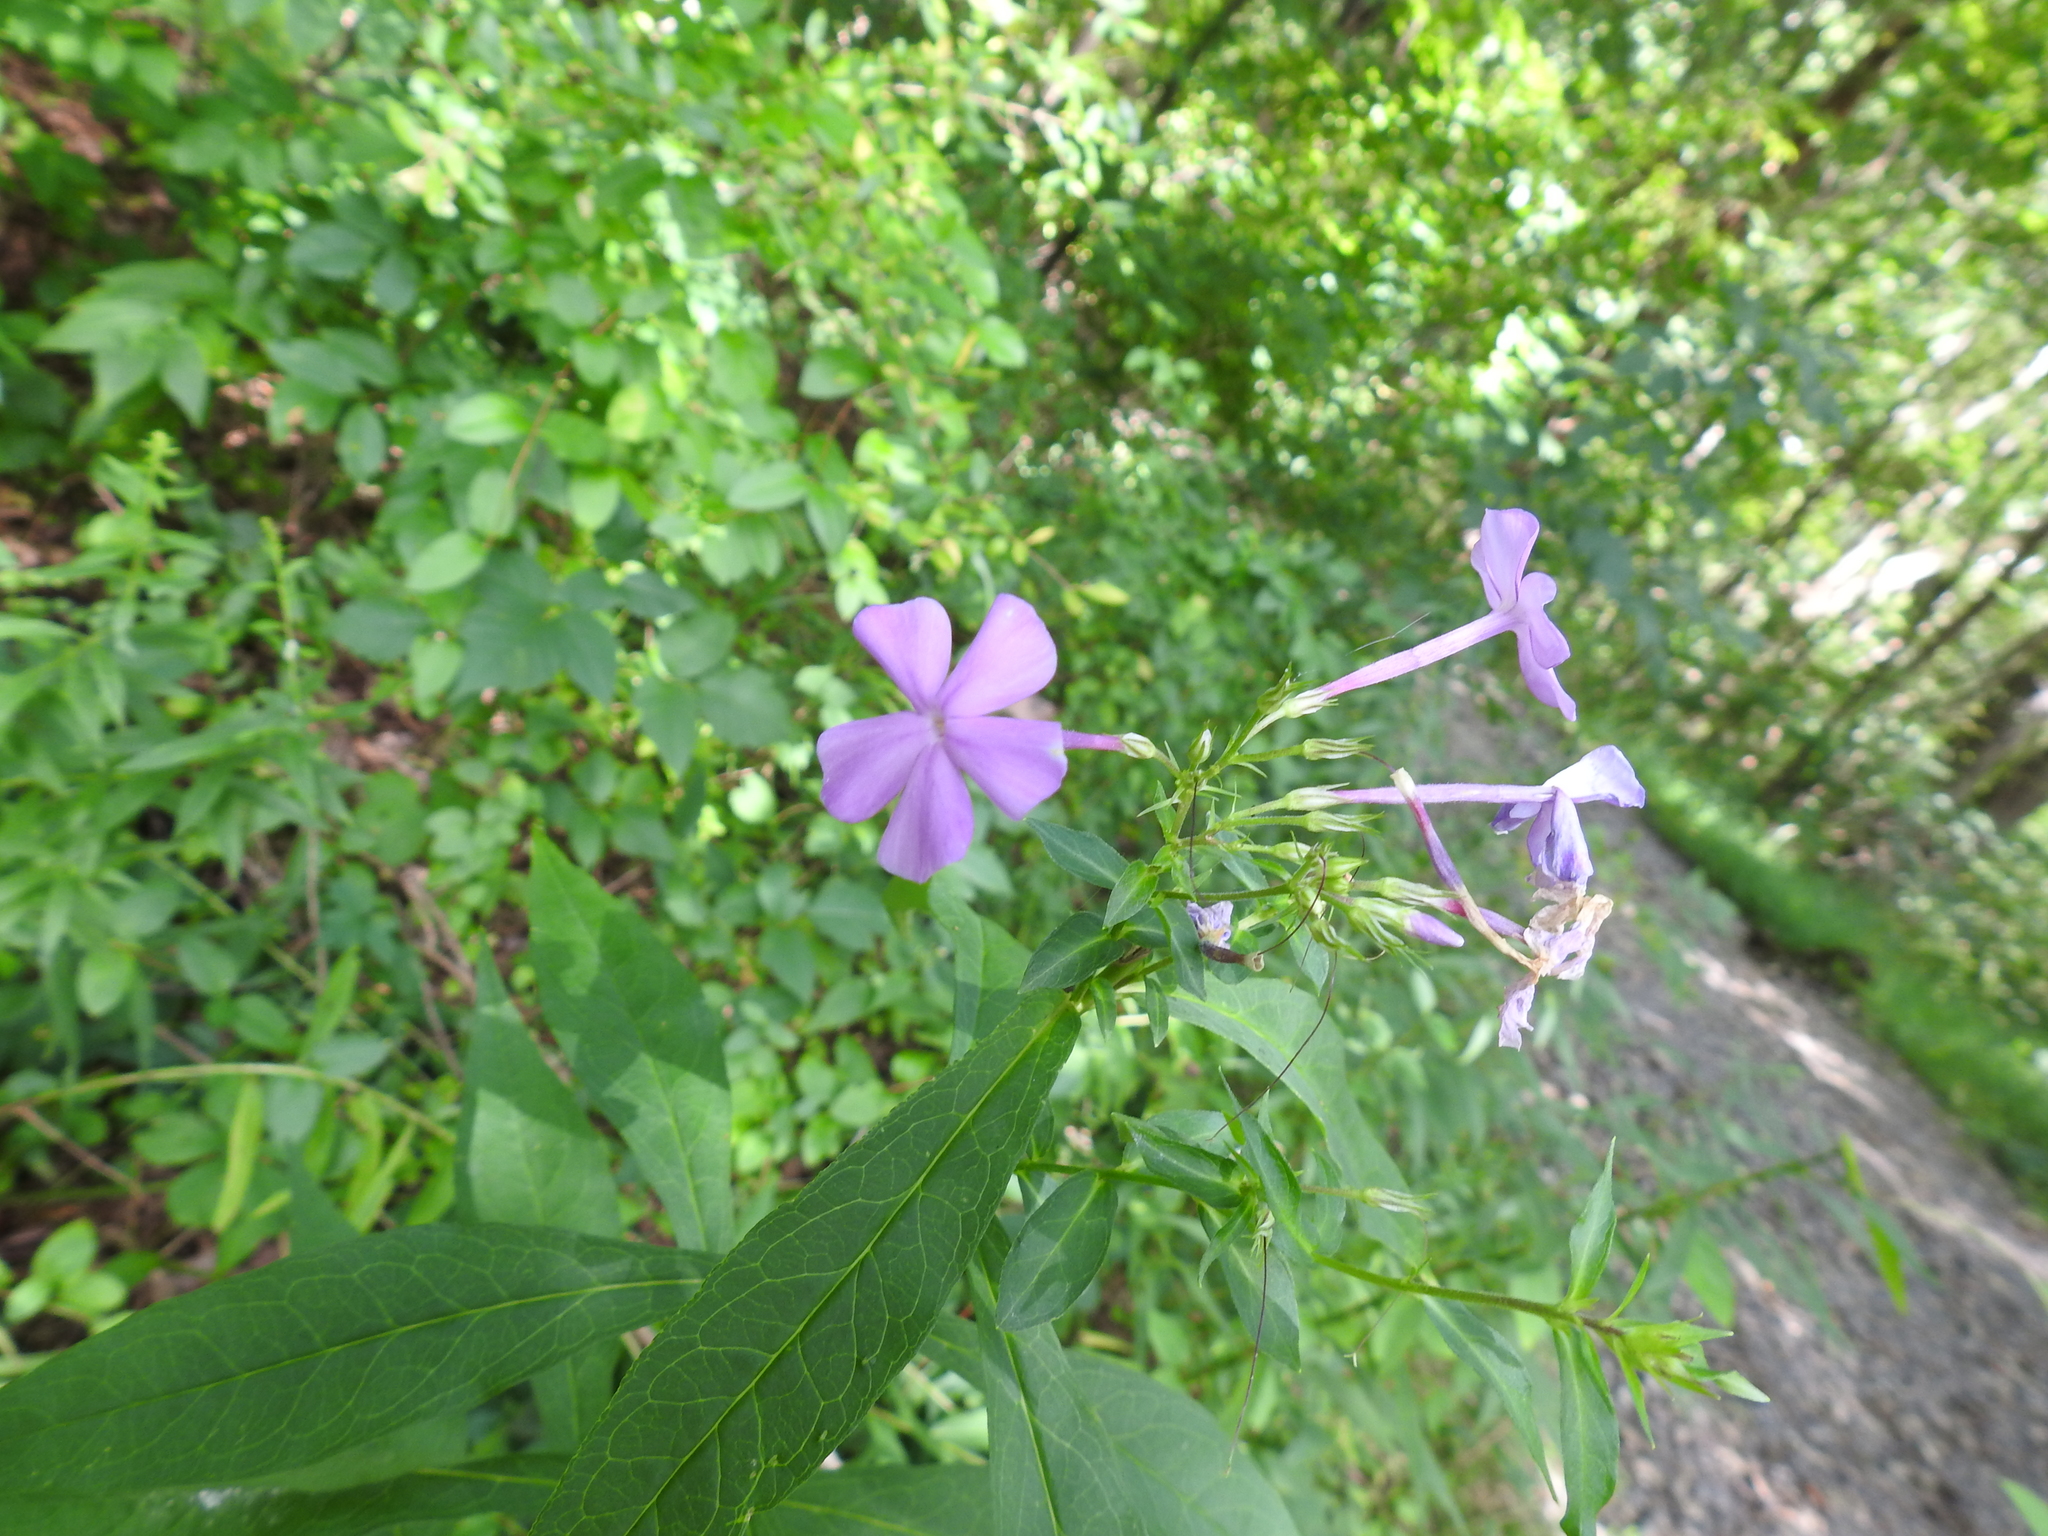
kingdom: Plantae
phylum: Tracheophyta
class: Magnoliopsida
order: Ericales
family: Polemoniaceae
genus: Phlox
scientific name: Phlox paniculata
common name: Fall phlox
